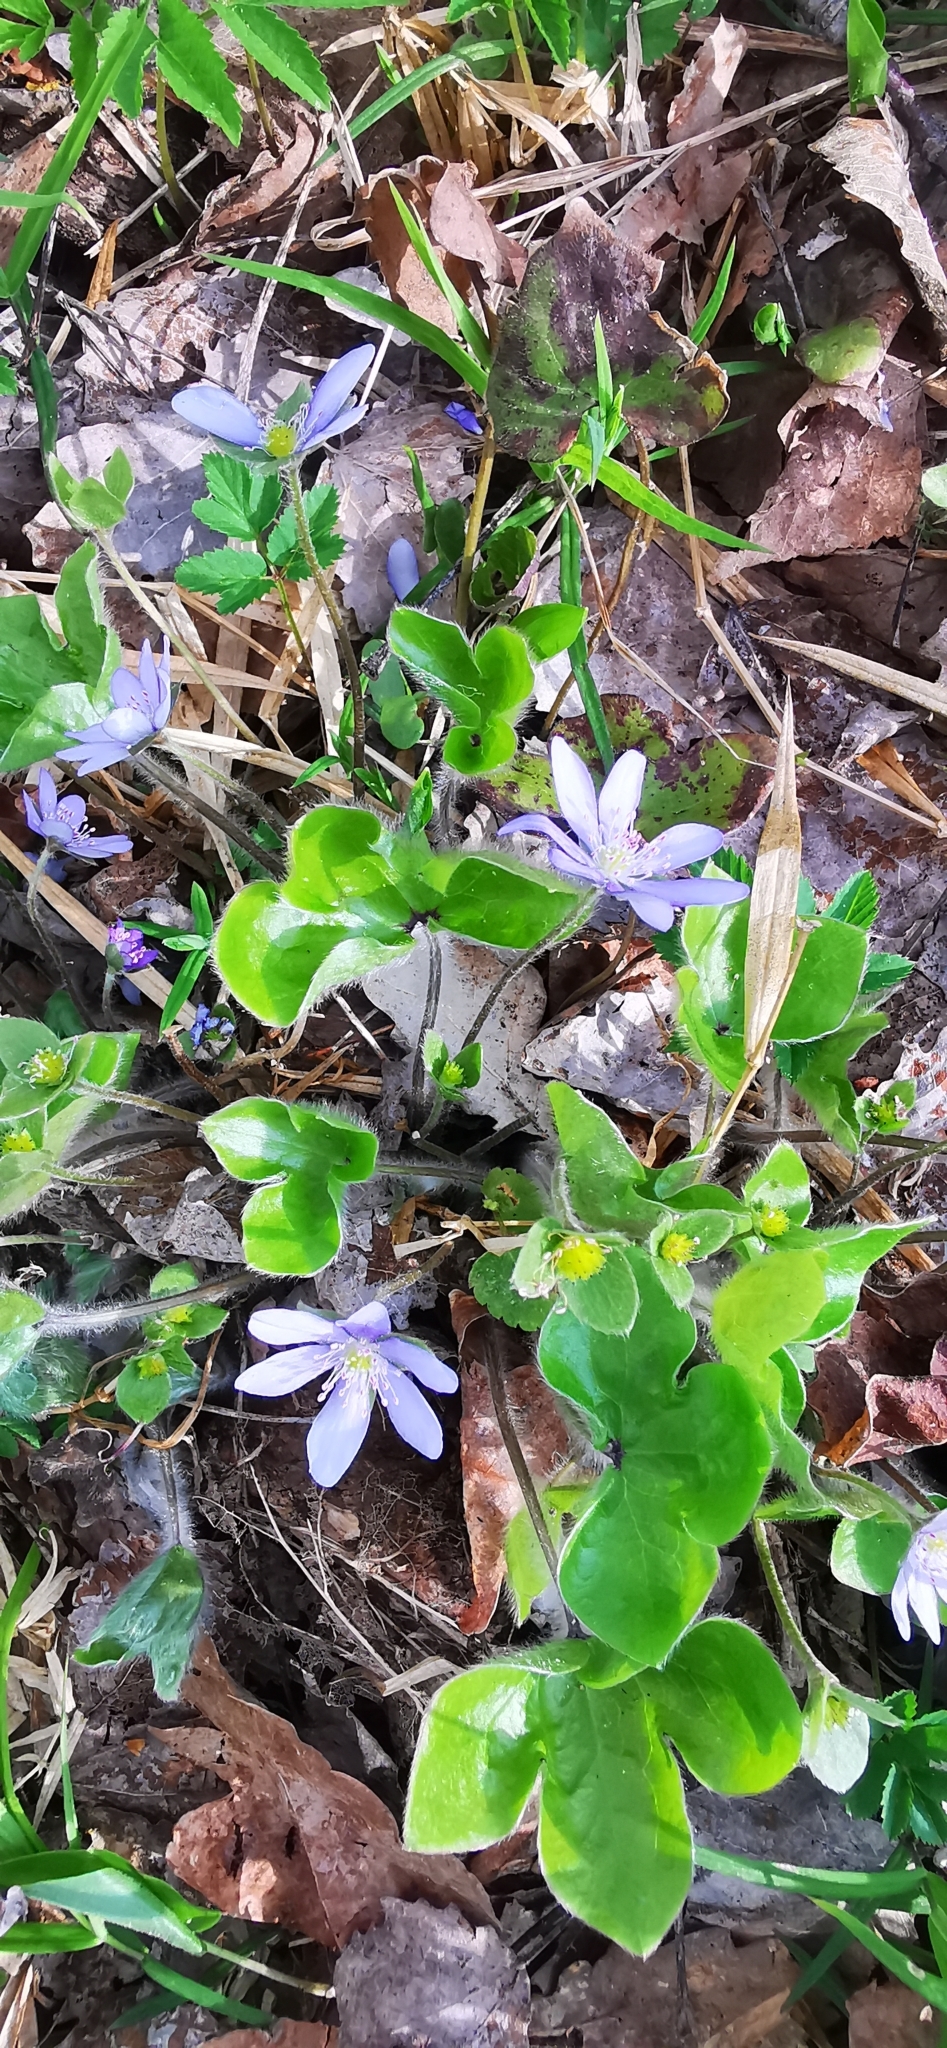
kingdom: Plantae
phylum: Tracheophyta
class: Magnoliopsida
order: Ranunculales
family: Ranunculaceae
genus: Hepatica
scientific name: Hepatica nobilis
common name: Liverleaf
